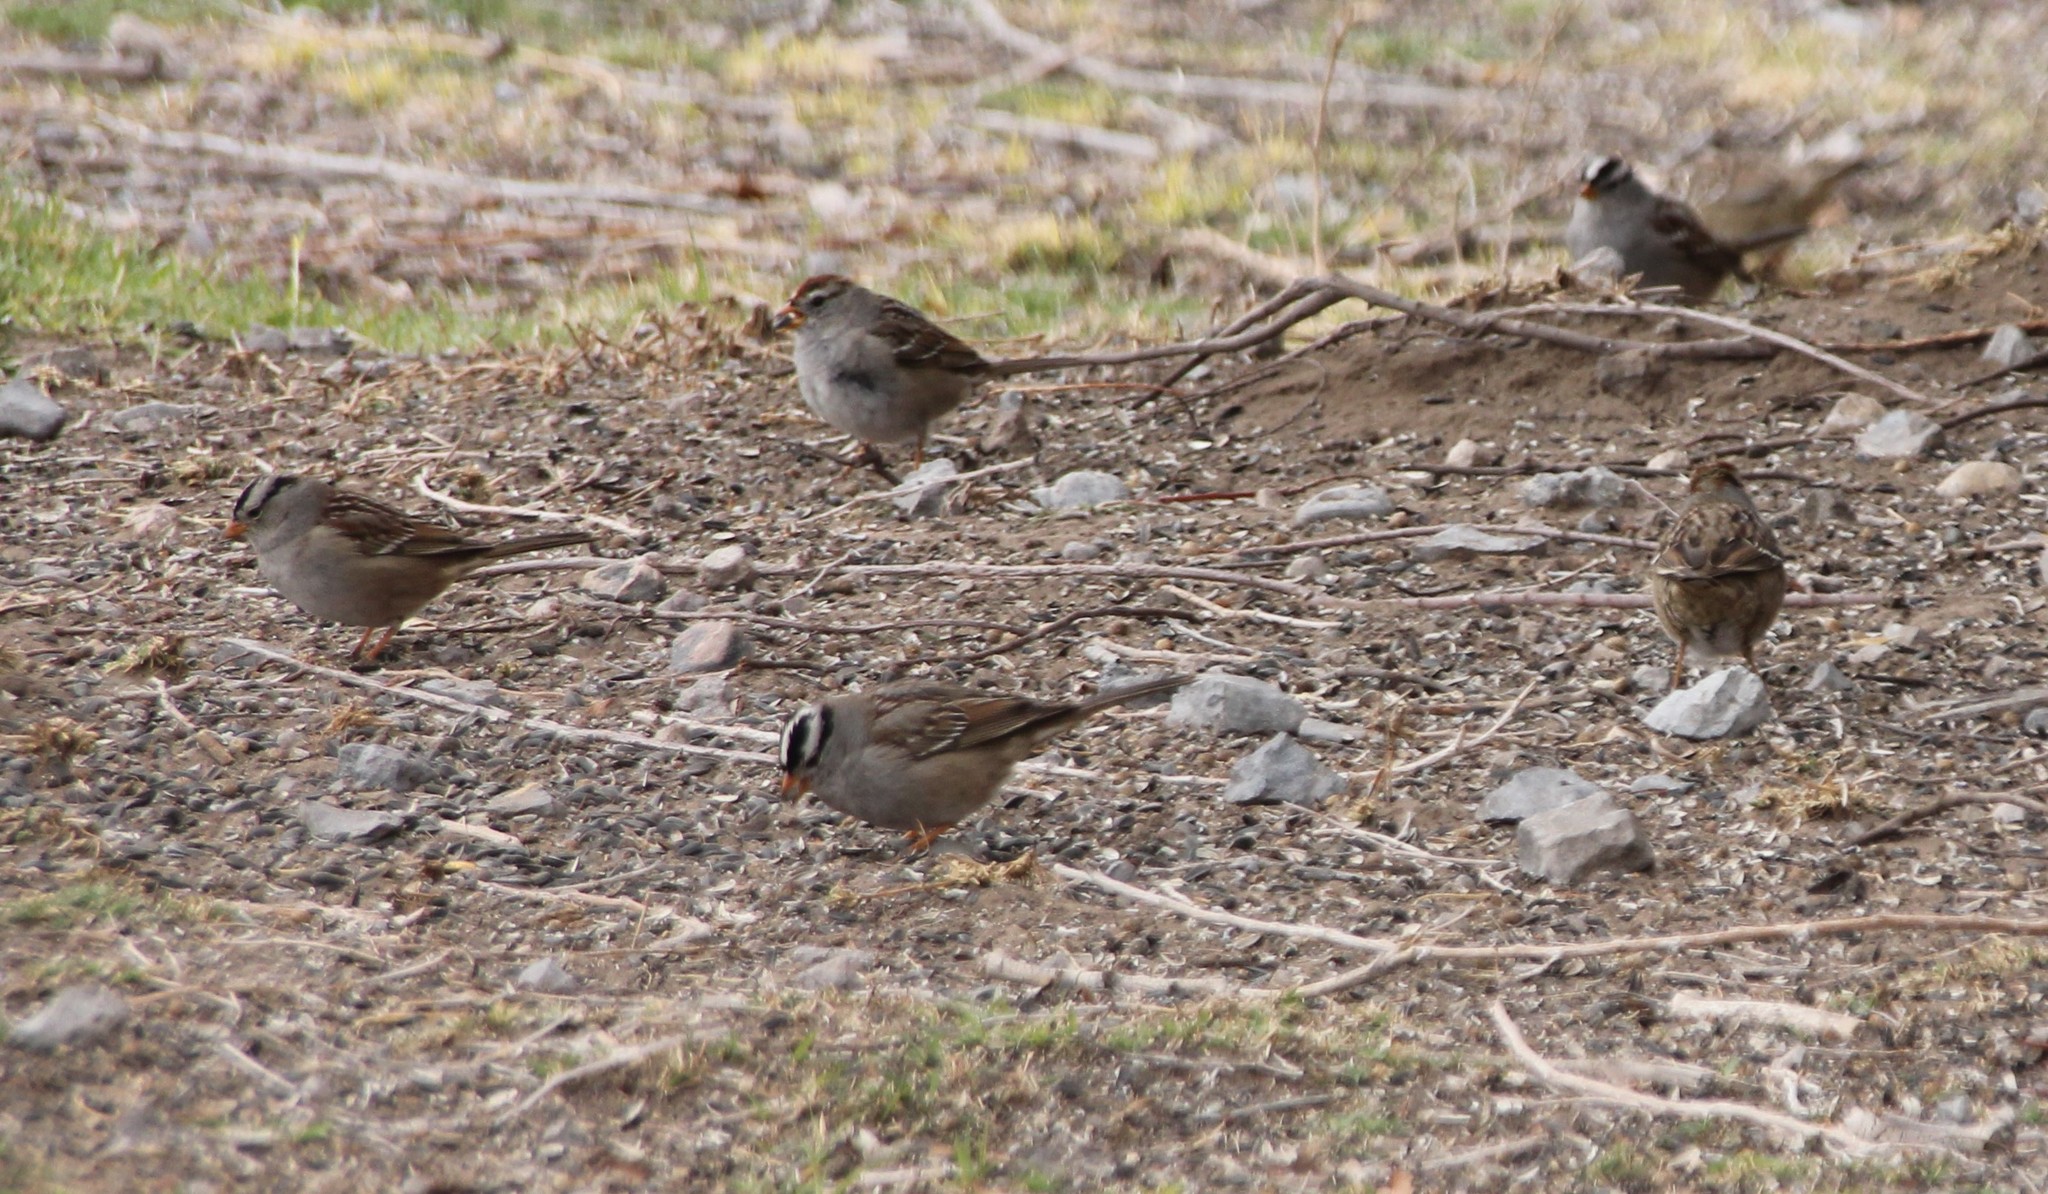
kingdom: Animalia
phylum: Chordata
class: Aves
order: Passeriformes
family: Passerellidae
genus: Zonotrichia
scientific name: Zonotrichia leucophrys
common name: White-crowned sparrow
